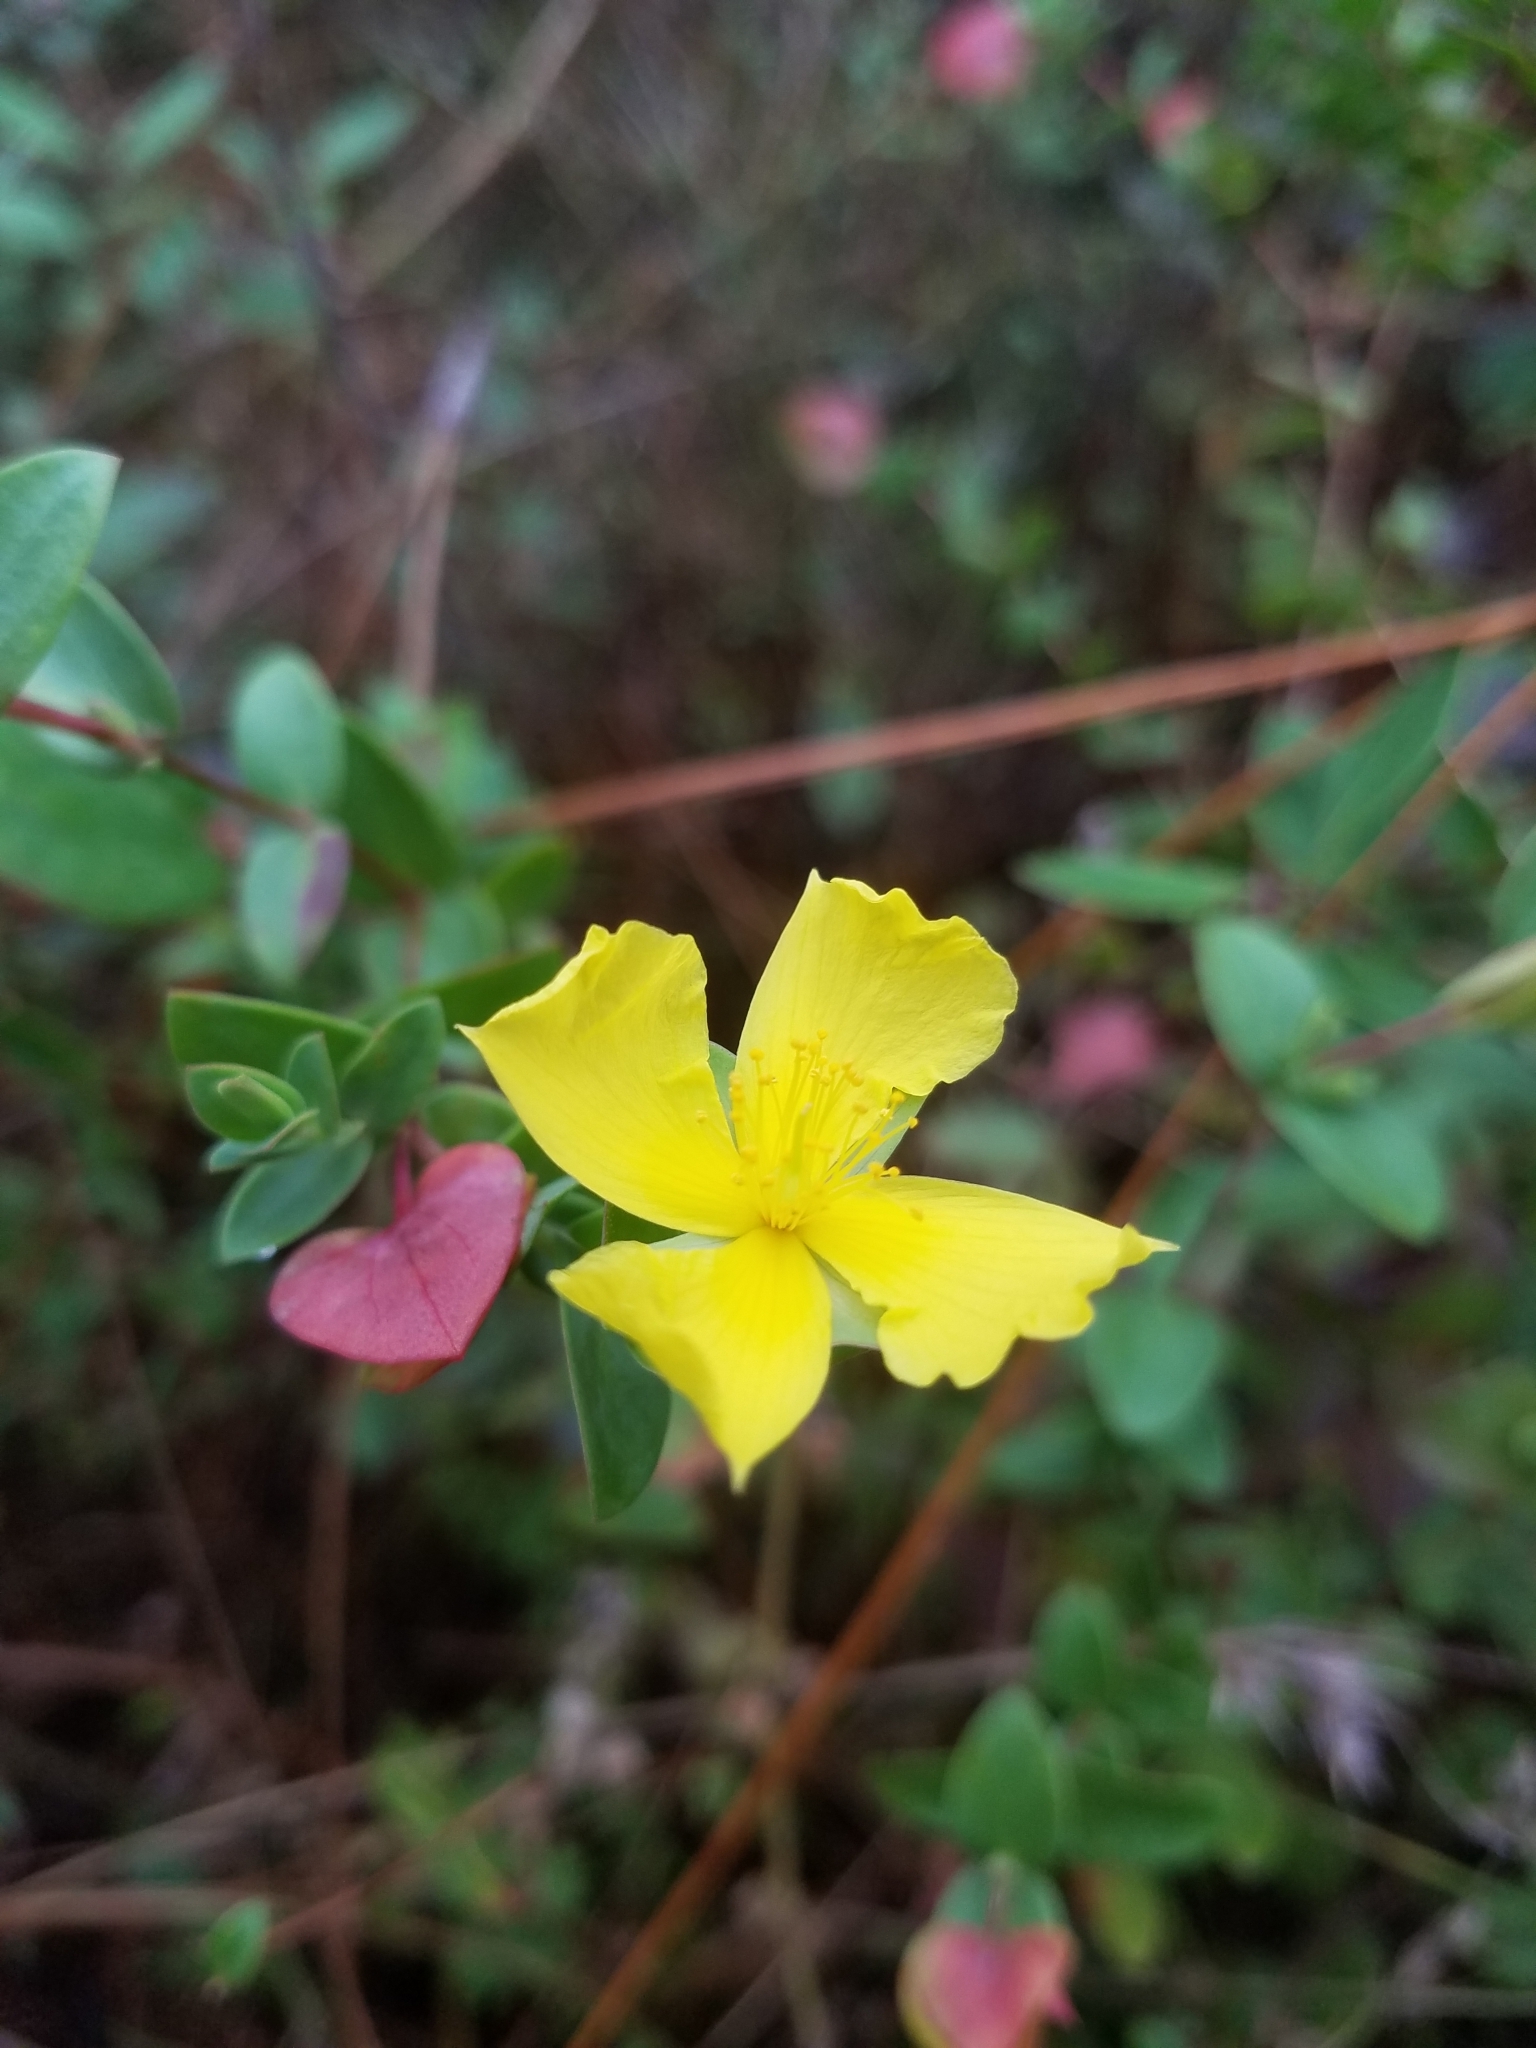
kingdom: Plantae
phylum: Tracheophyta
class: Magnoliopsida
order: Malpighiales
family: Hypericaceae
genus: Hypericum
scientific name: Hypericum tetrapetalum
